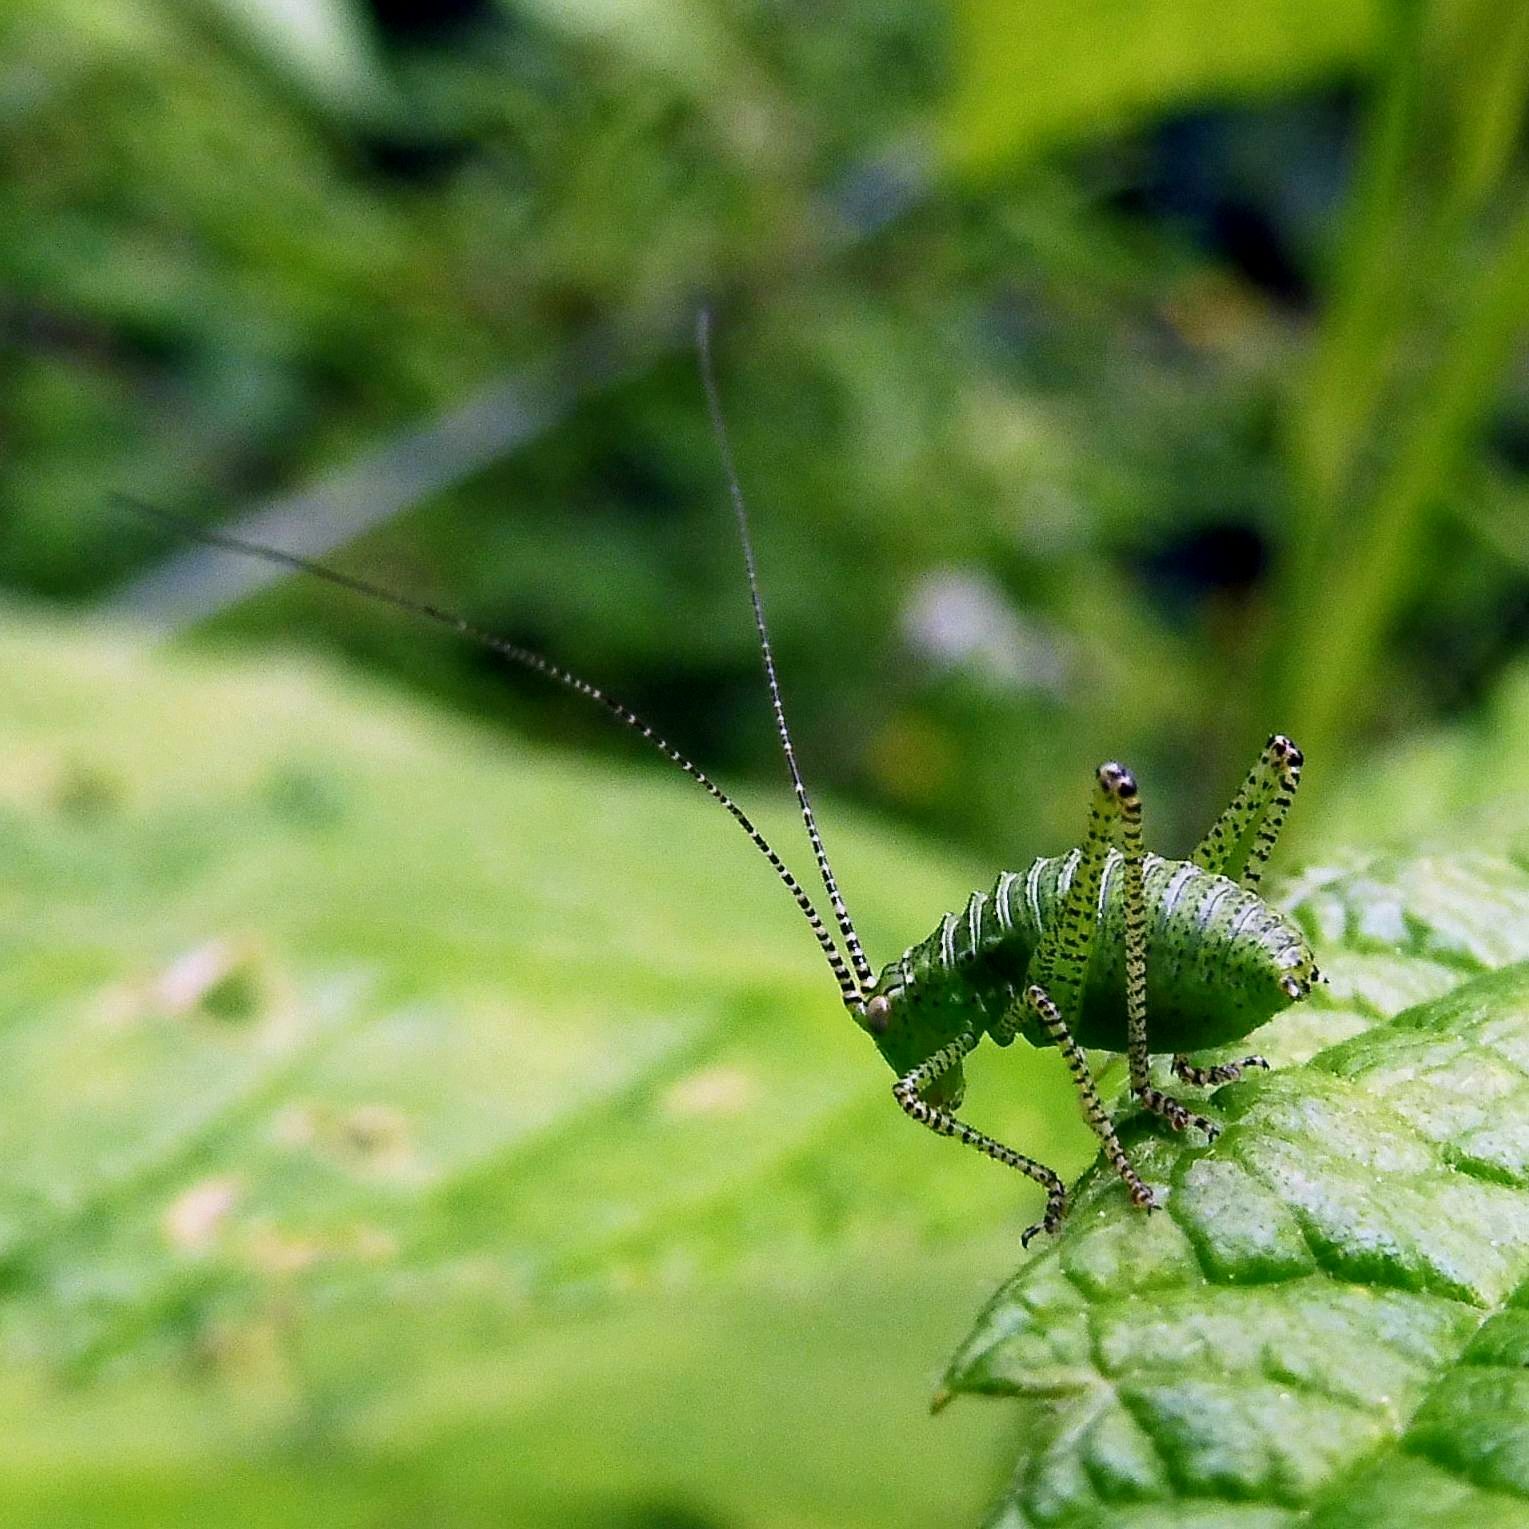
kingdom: Animalia
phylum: Arthropoda
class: Insecta
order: Orthoptera
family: Tettigoniidae
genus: Leptophyes
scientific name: Leptophyes punctatissima
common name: Speckled bush-cricket
